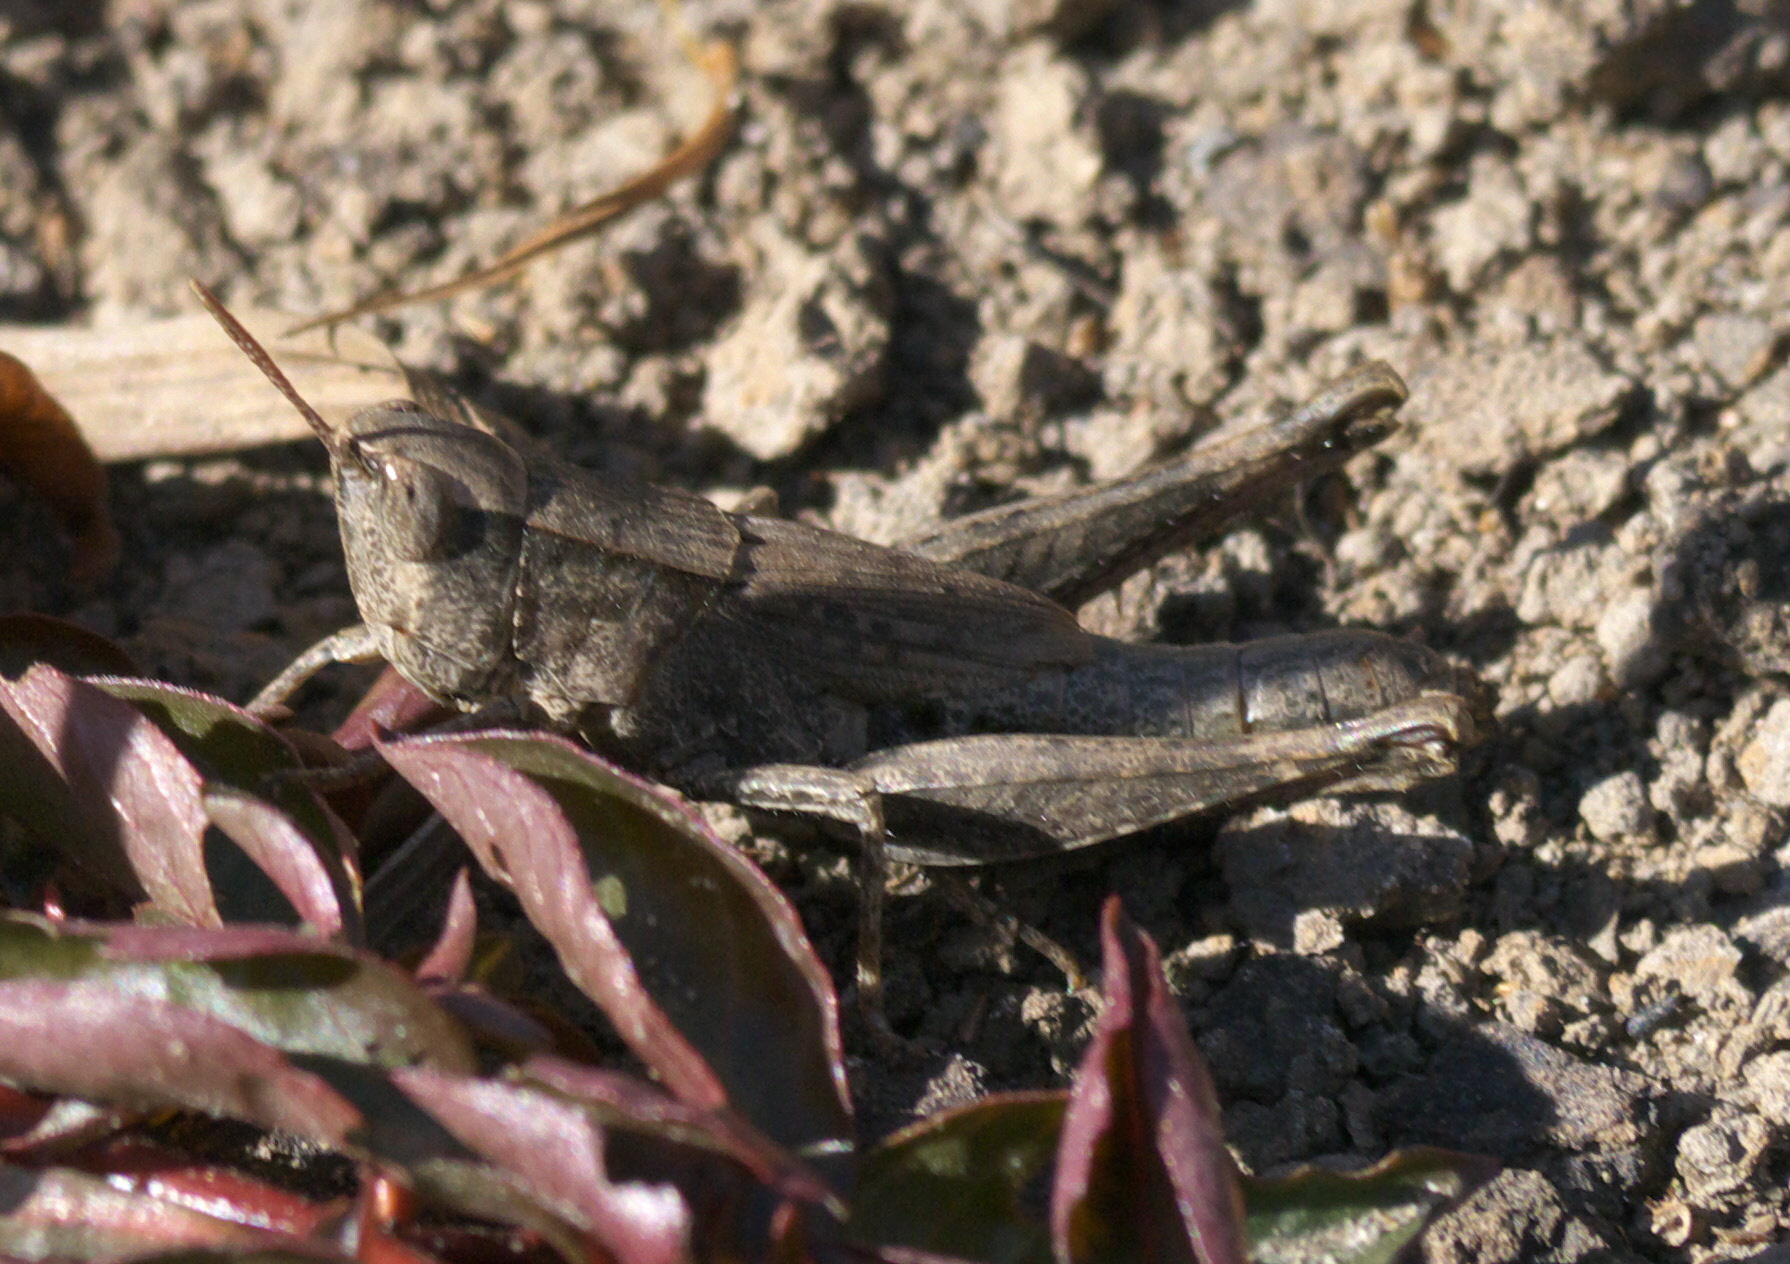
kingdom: Animalia
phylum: Arthropoda
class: Insecta
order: Orthoptera
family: Acrididae
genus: Dichromorpha
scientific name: Dichromorpha viridis
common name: Short-winged green grasshopper
